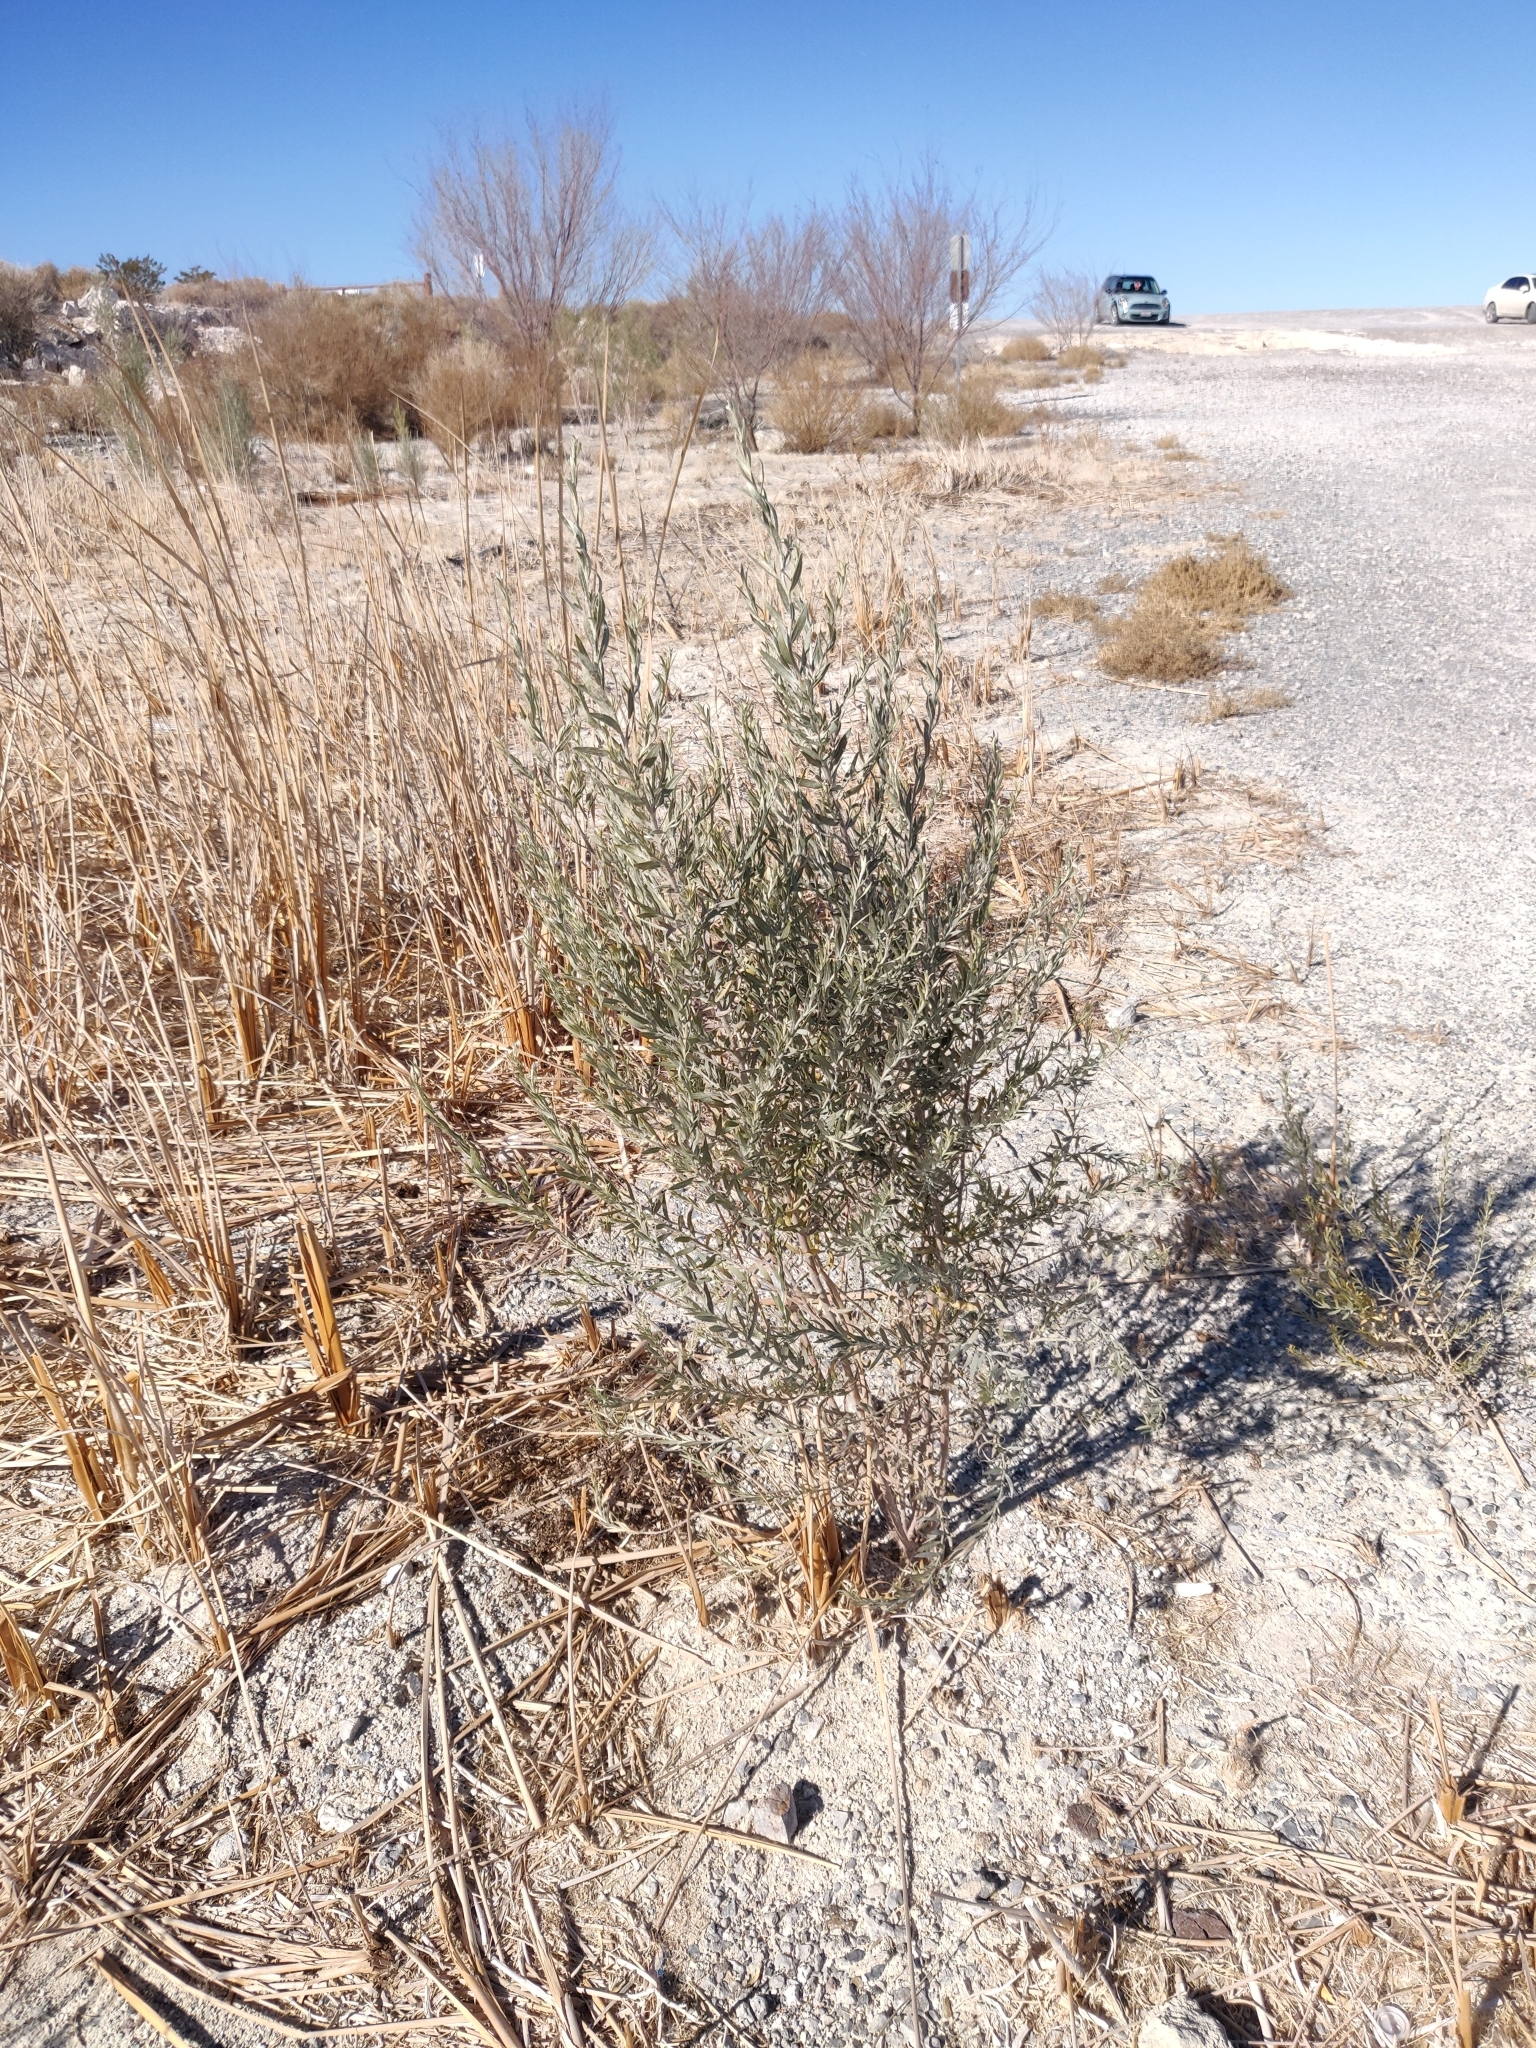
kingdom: Plantae
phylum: Tracheophyta
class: Magnoliopsida
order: Asterales
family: Asteraceae
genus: Pluchea
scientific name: Pluchea sericea
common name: Arrow-weed
